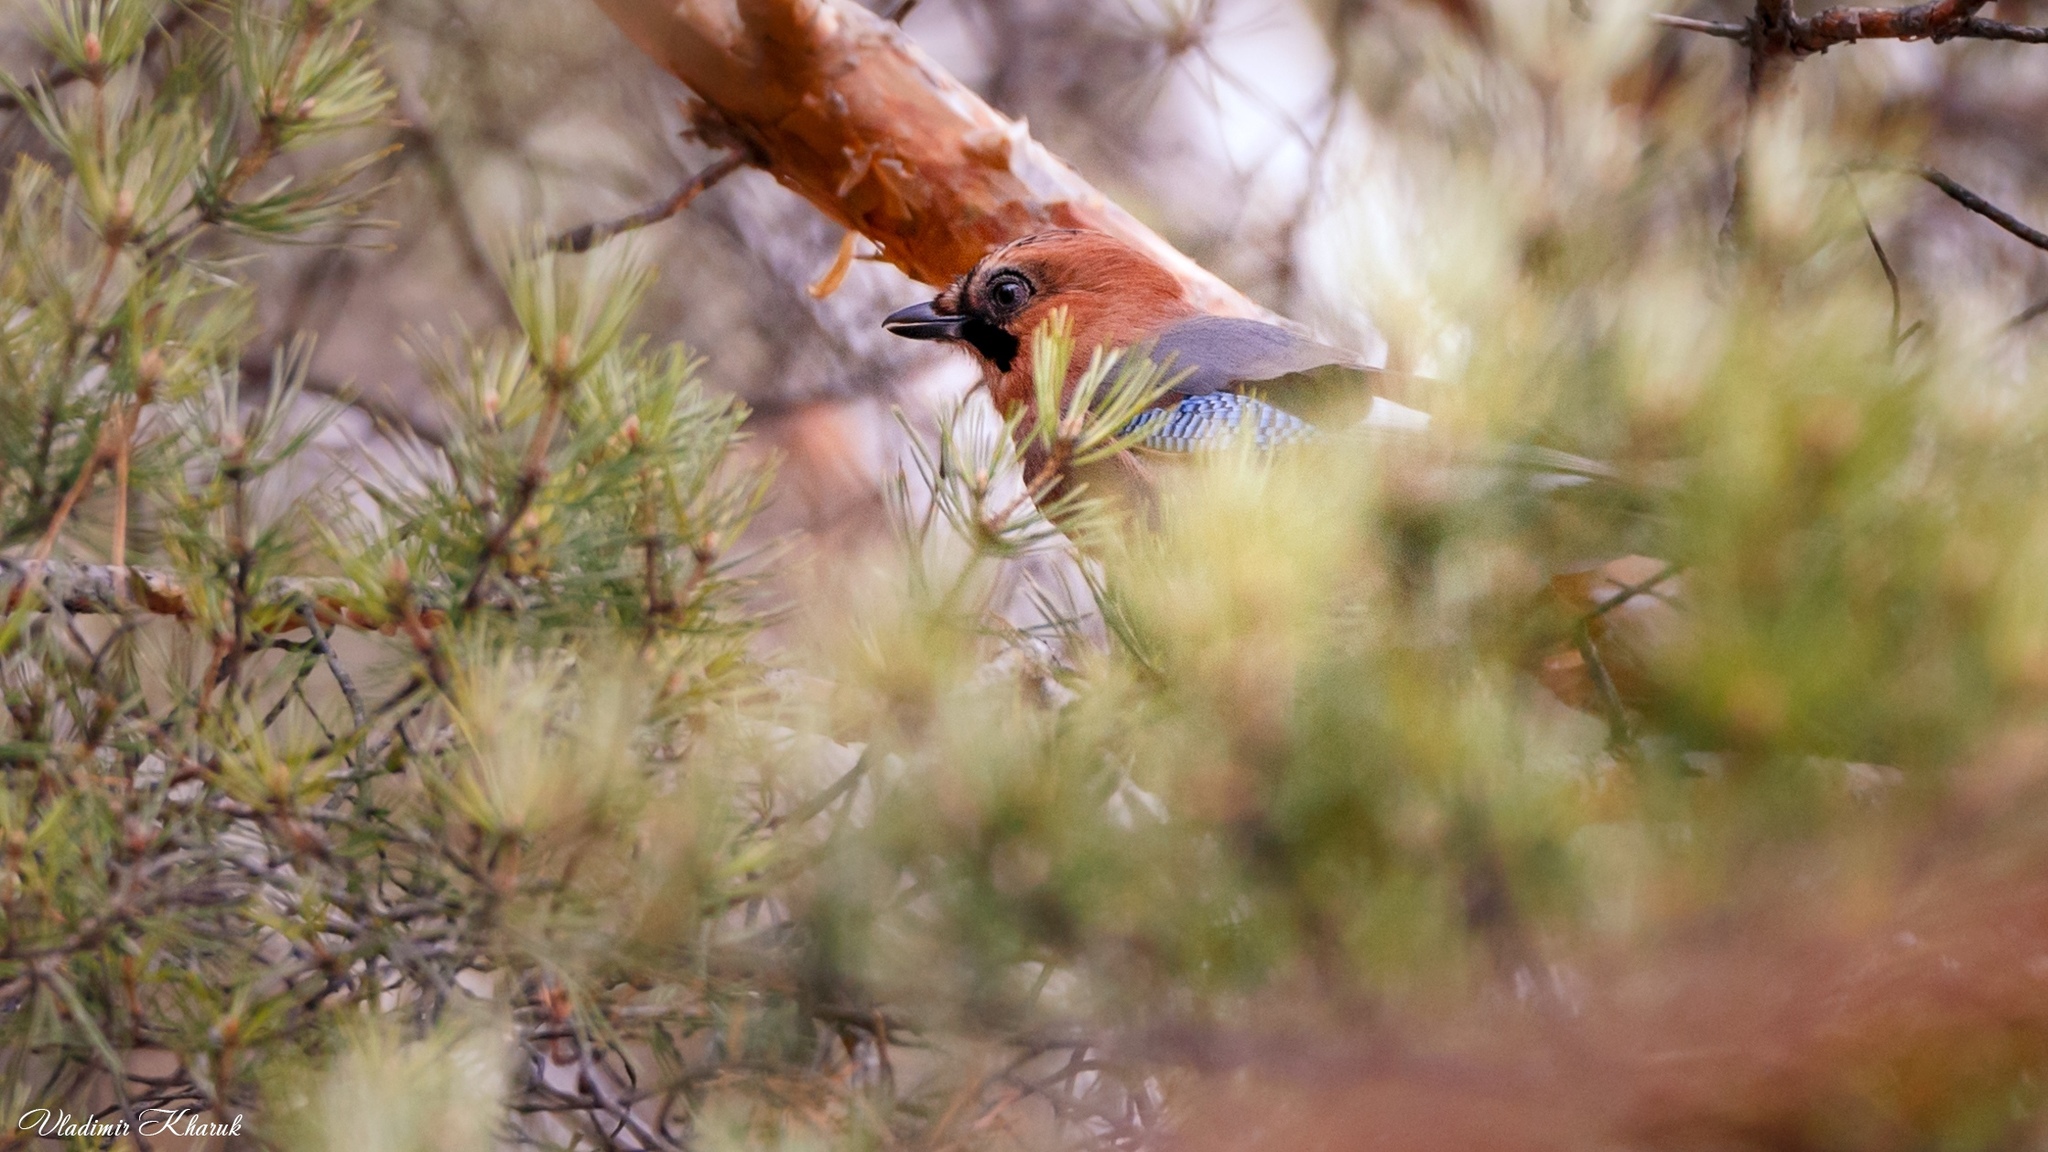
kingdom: Animalia
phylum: Chordata
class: Aves
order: Passeriformes
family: Corvidae
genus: Garrulus
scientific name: Garrulus glandarius
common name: Eurasian jay
